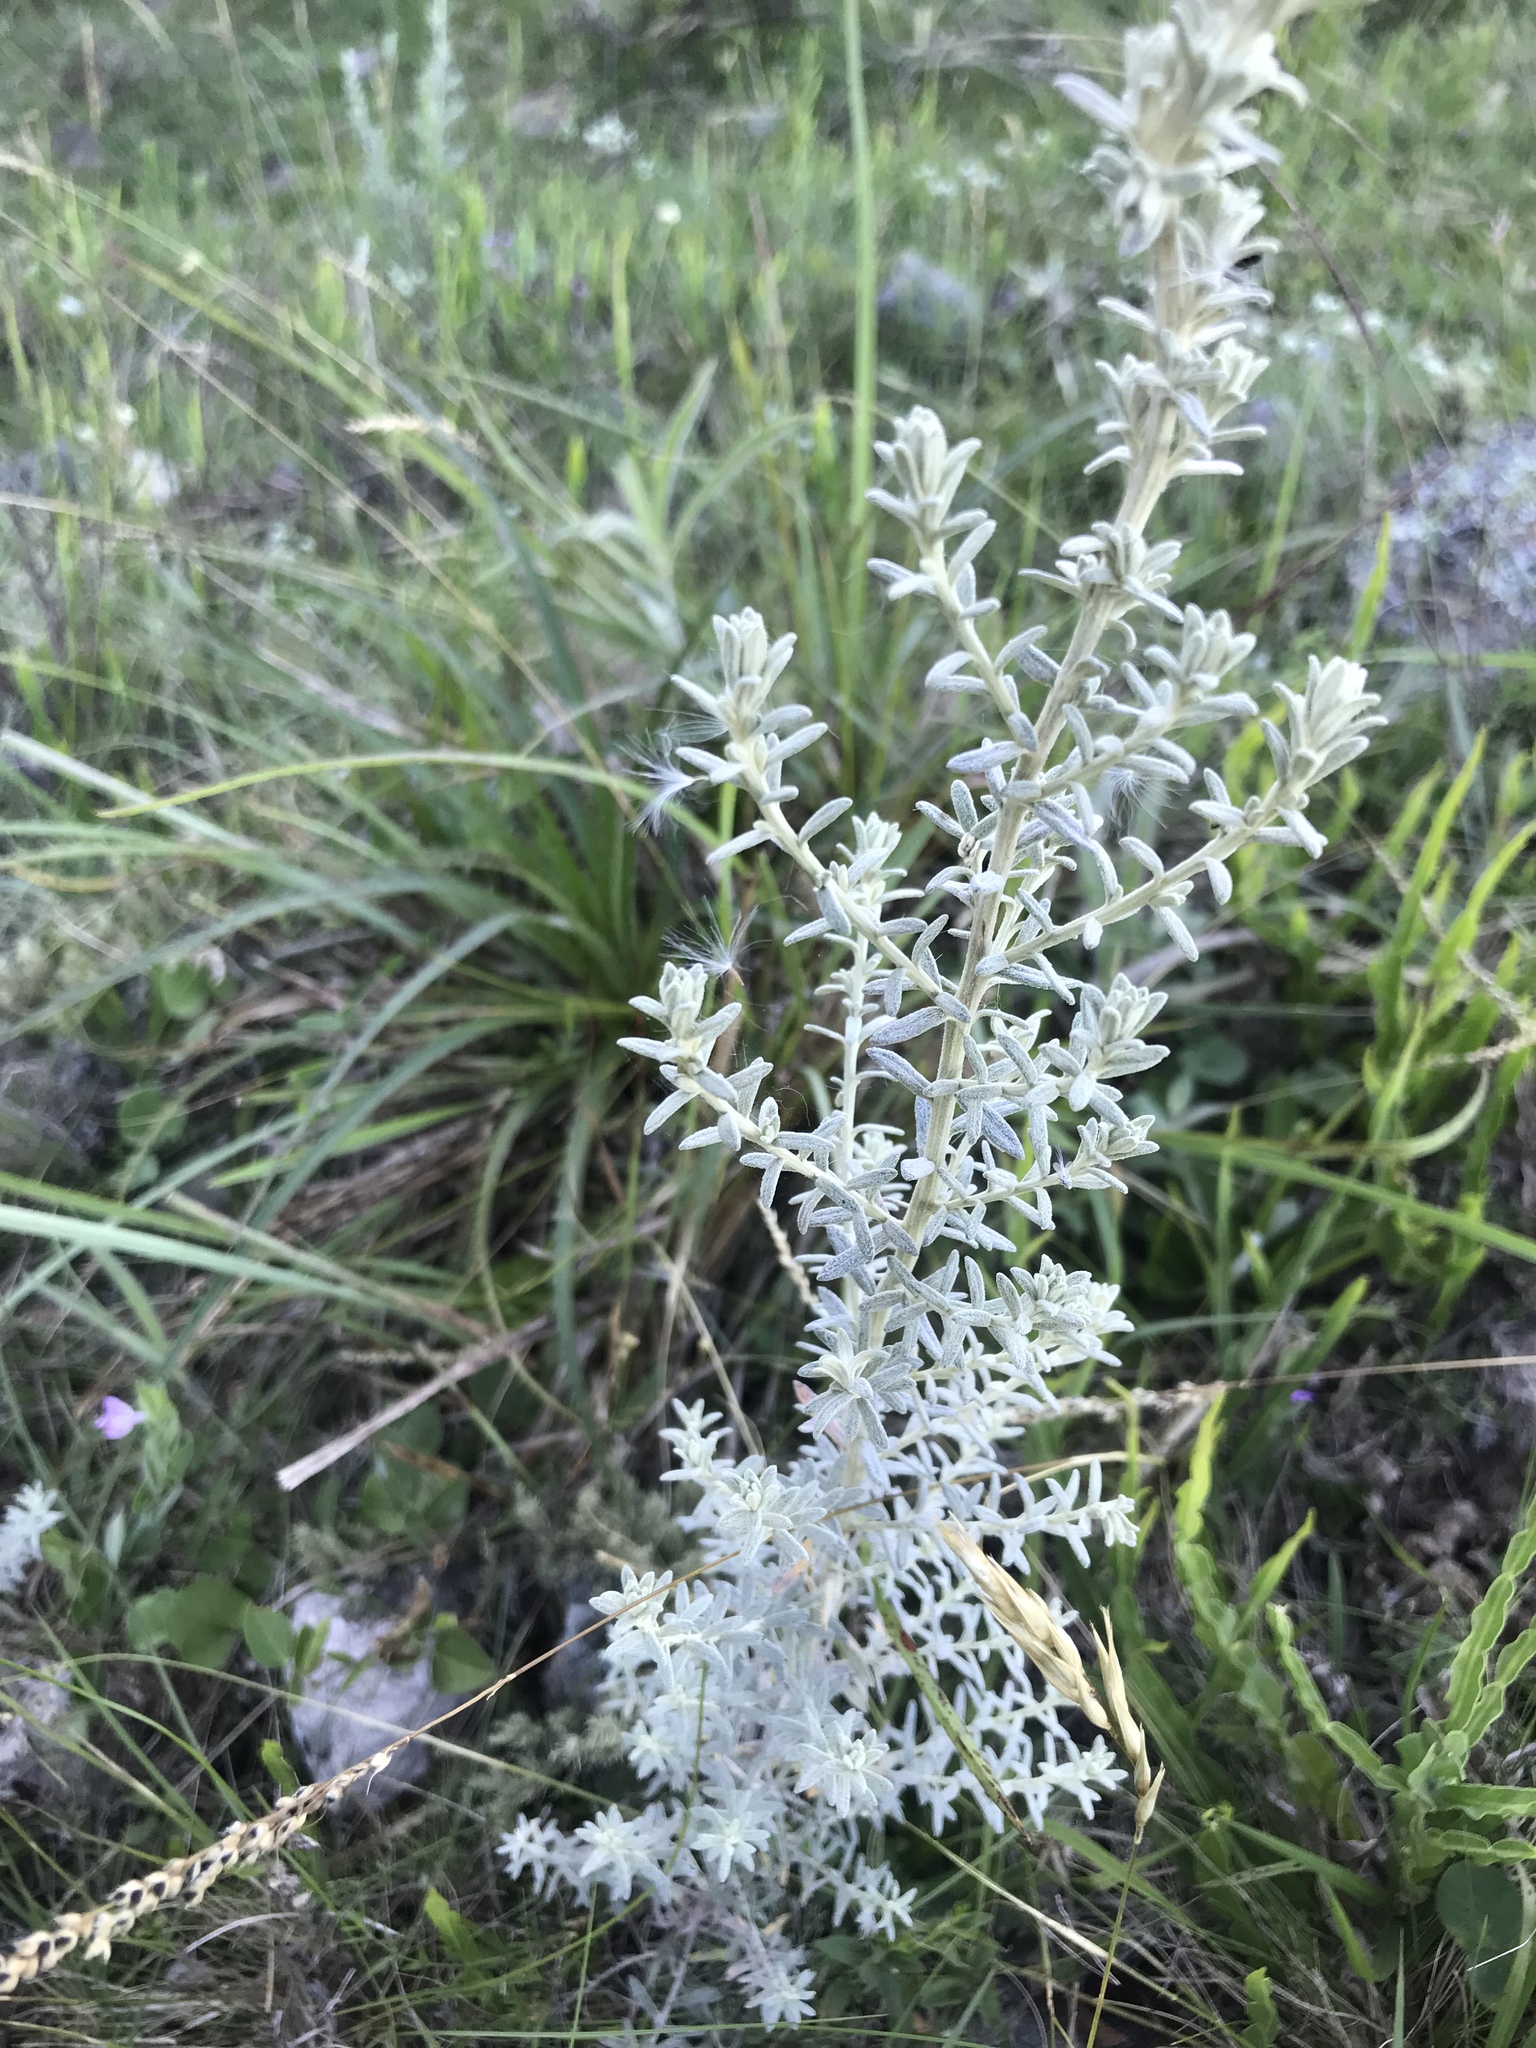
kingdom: Plantae
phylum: Tracheophyta
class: Magnoliopsida
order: Asterales
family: Asteraceae
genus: Baccharis
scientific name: Baccharis ochracea
